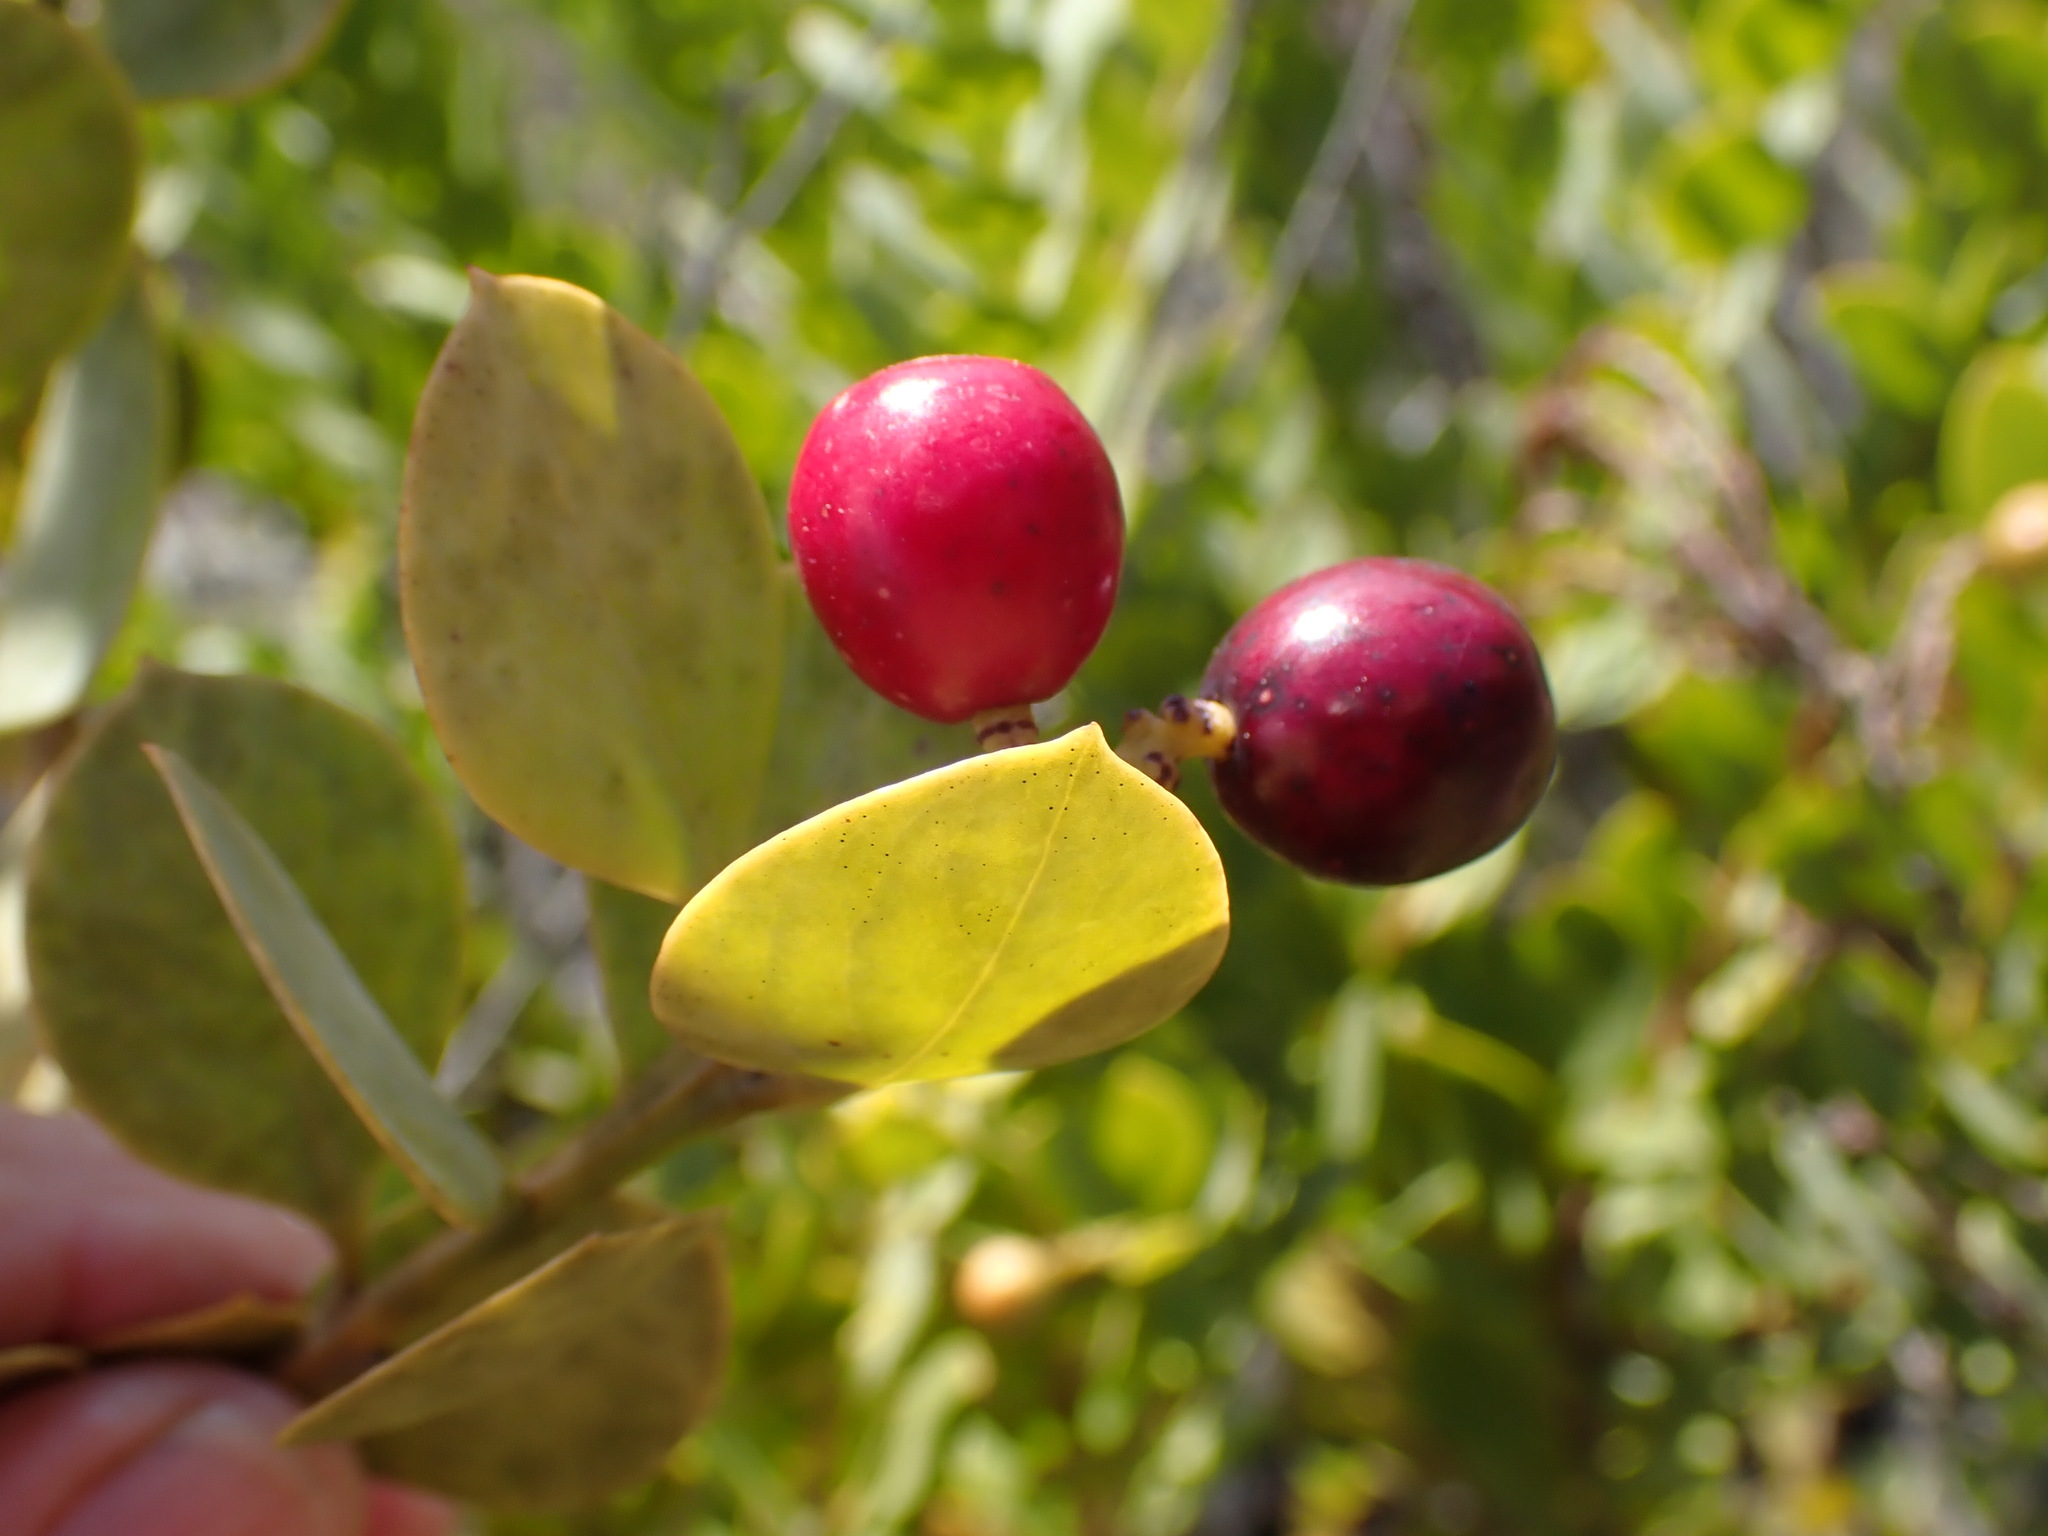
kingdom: Plantae
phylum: Tracheophyta
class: Magnoliopsida
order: Santalales
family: Santalaceae
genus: Osyris
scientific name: Osyris compressa
